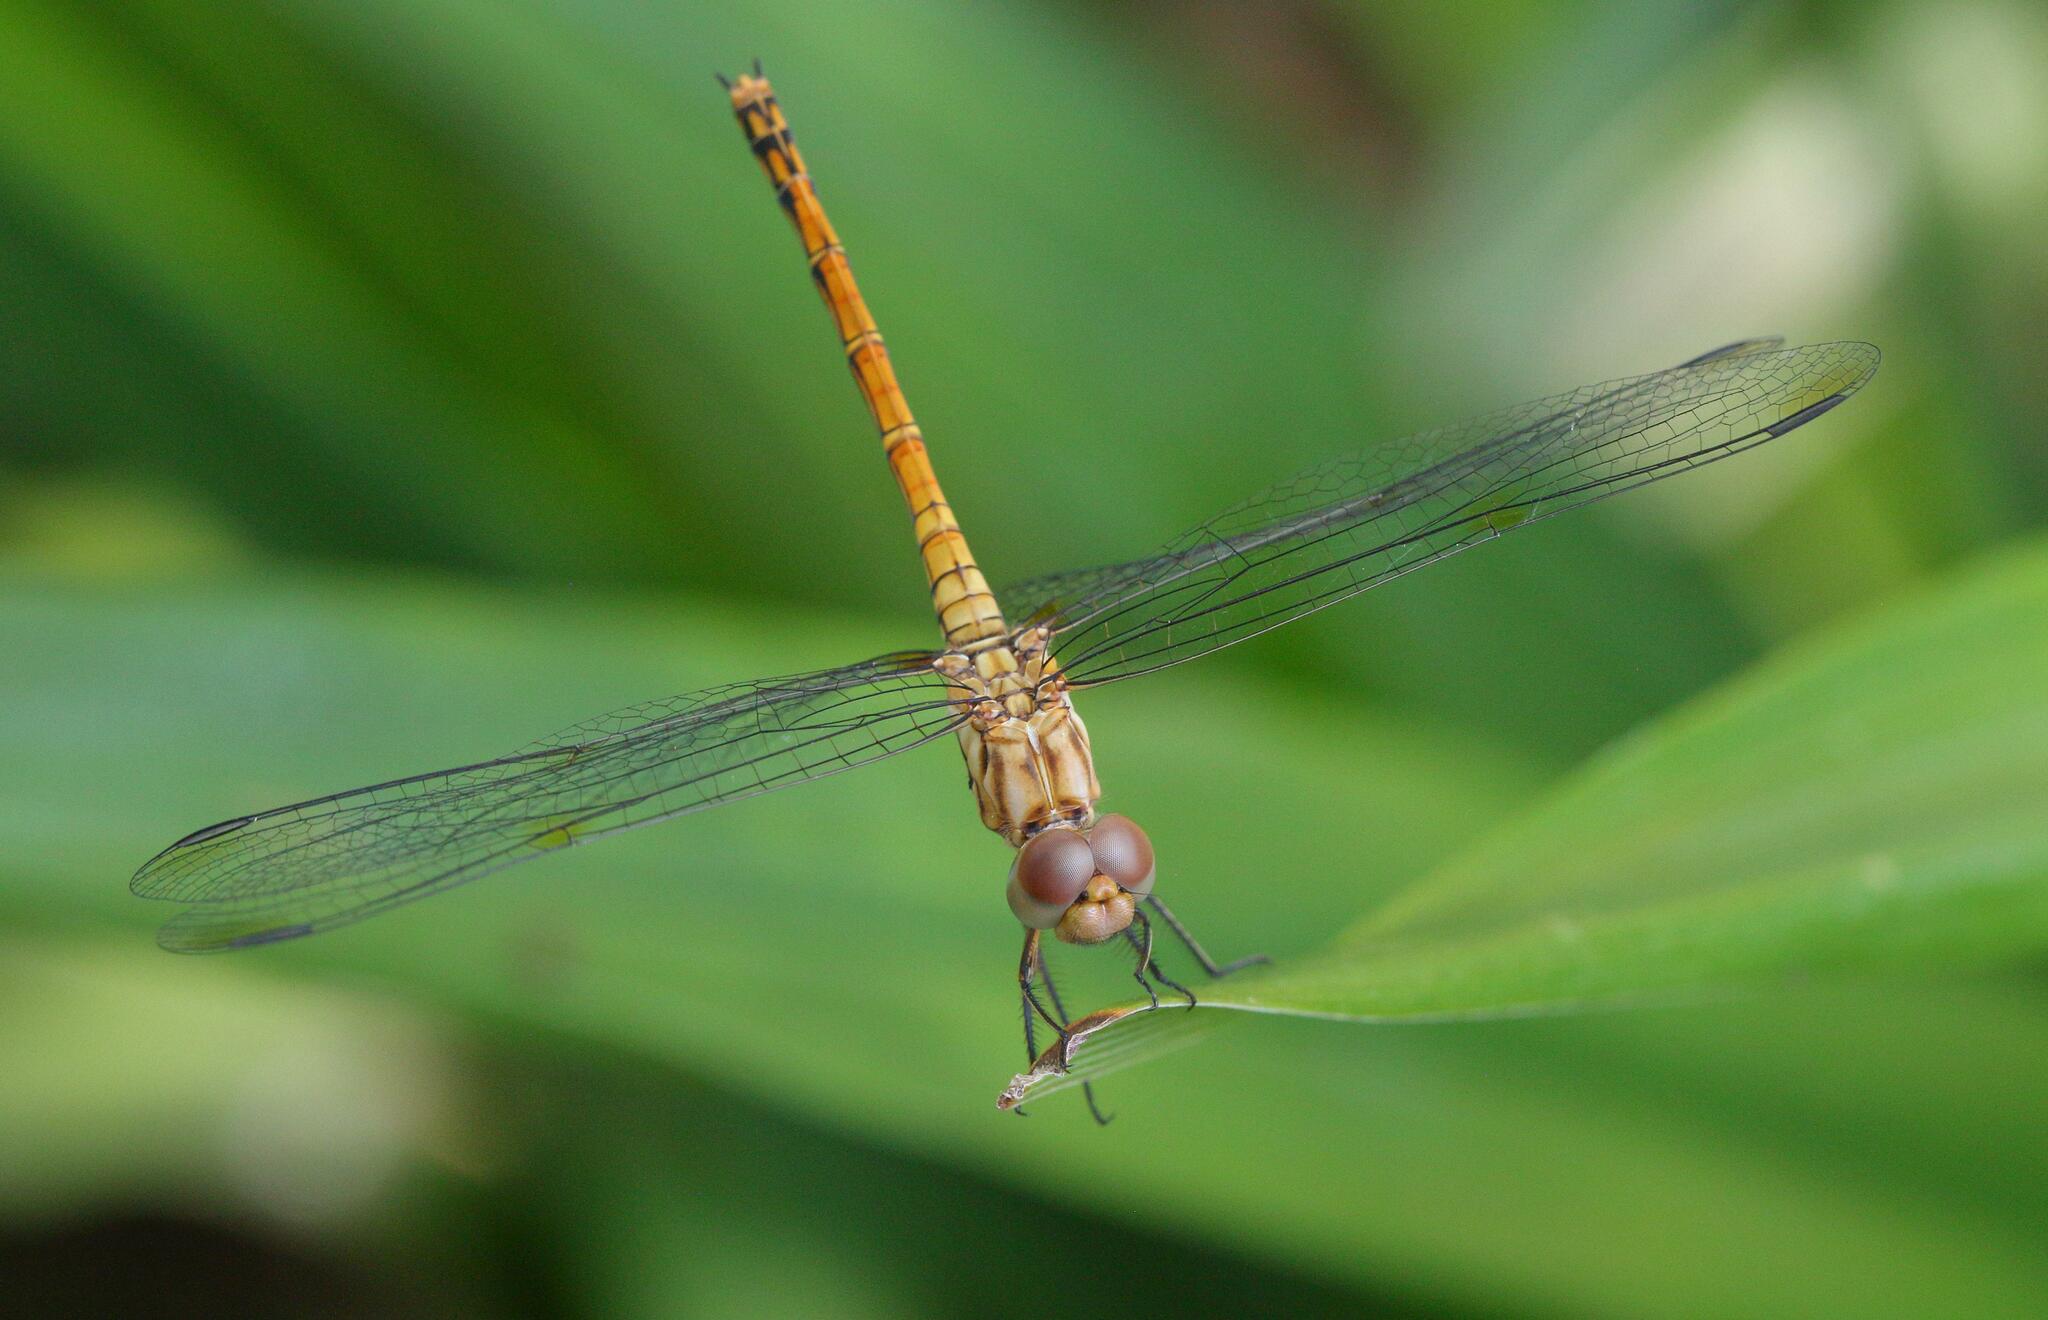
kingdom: Animalia
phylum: Arthropoda
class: Insecta
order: Odonata
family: Libellulidae
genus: Trithemis
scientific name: Trithemis werneri
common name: Elegant dropwing
